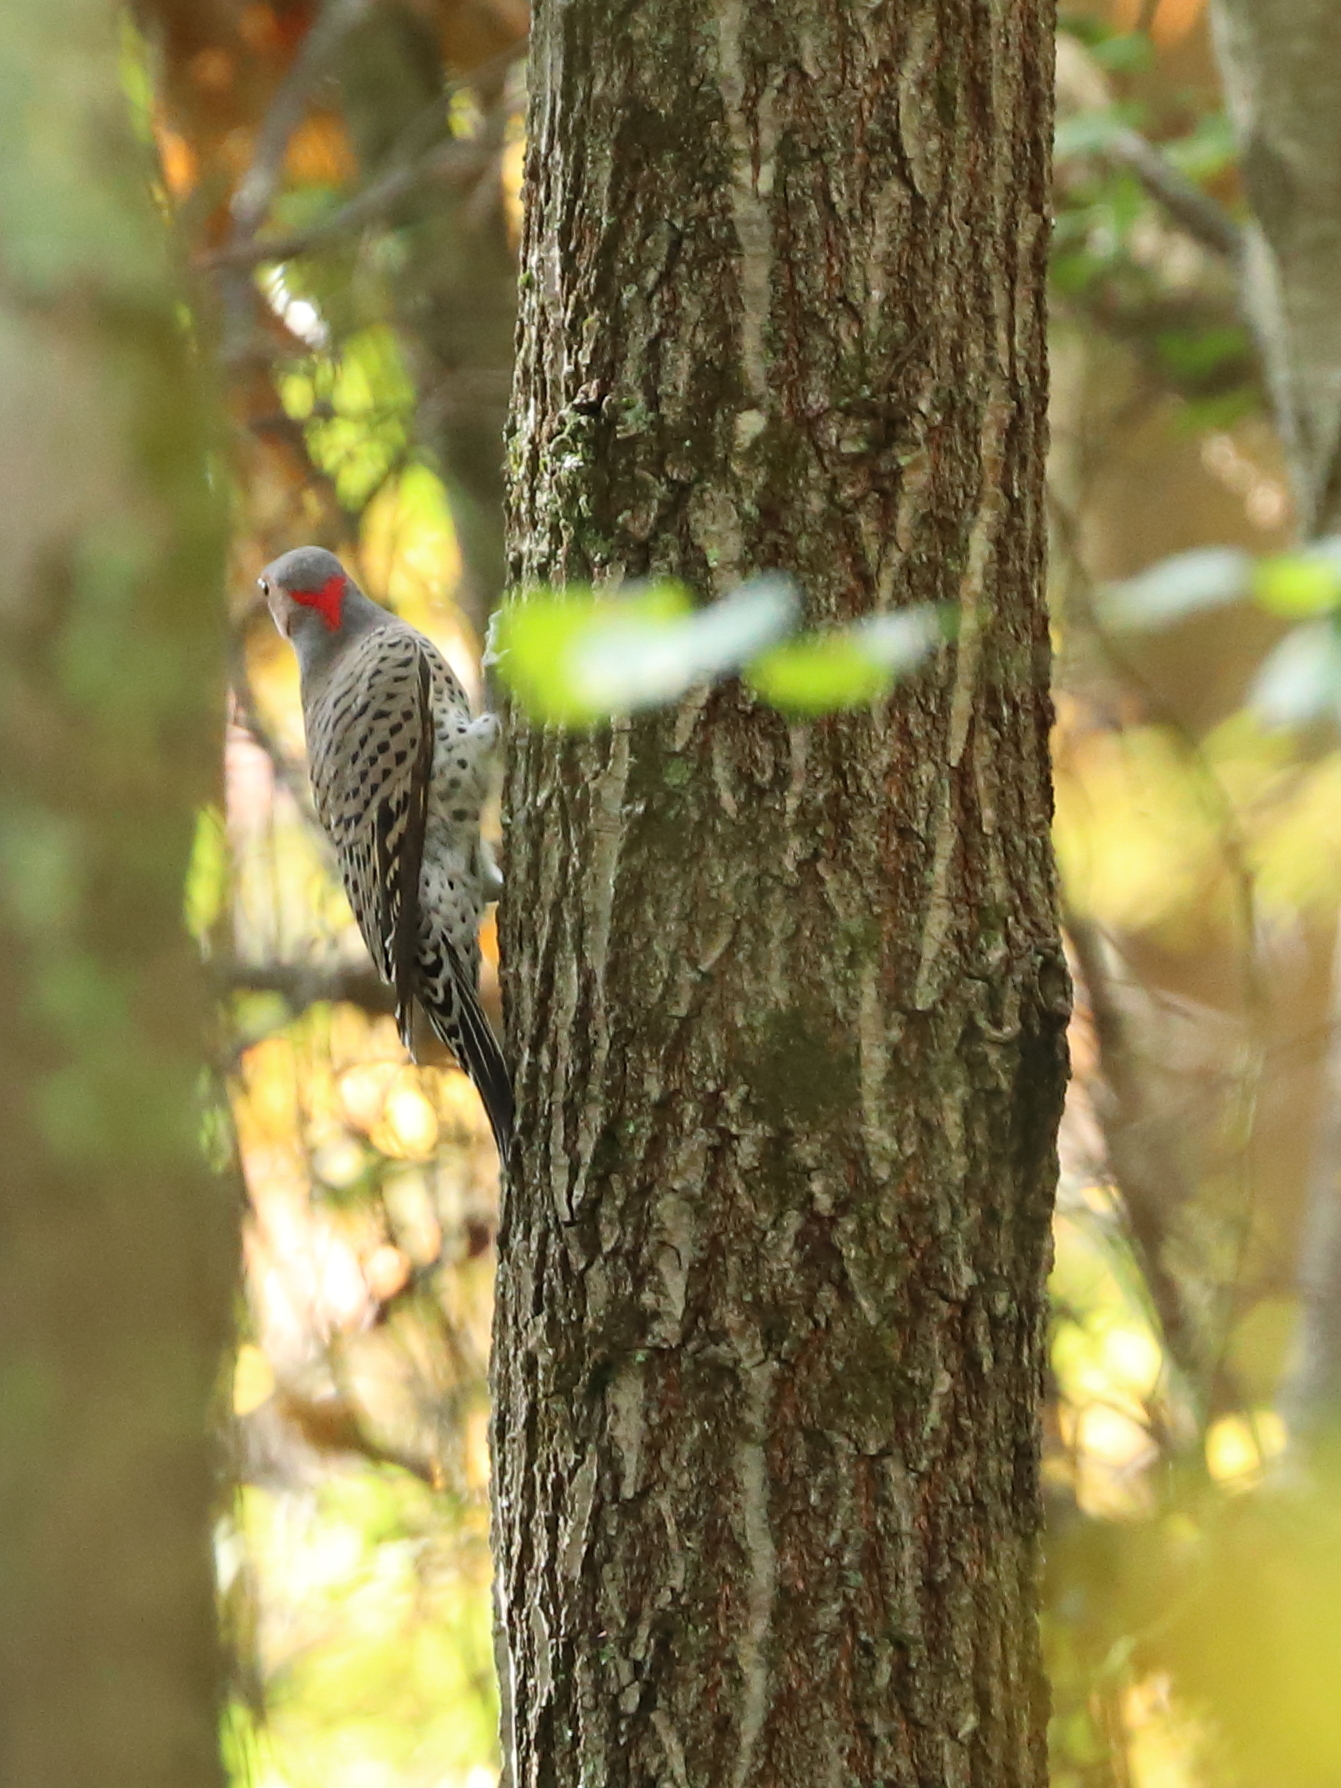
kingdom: Animalia
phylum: Chordata
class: Aves
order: Piciformes
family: Picidae
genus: Colaptes
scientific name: Colaptes auratus
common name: Northern flicker
